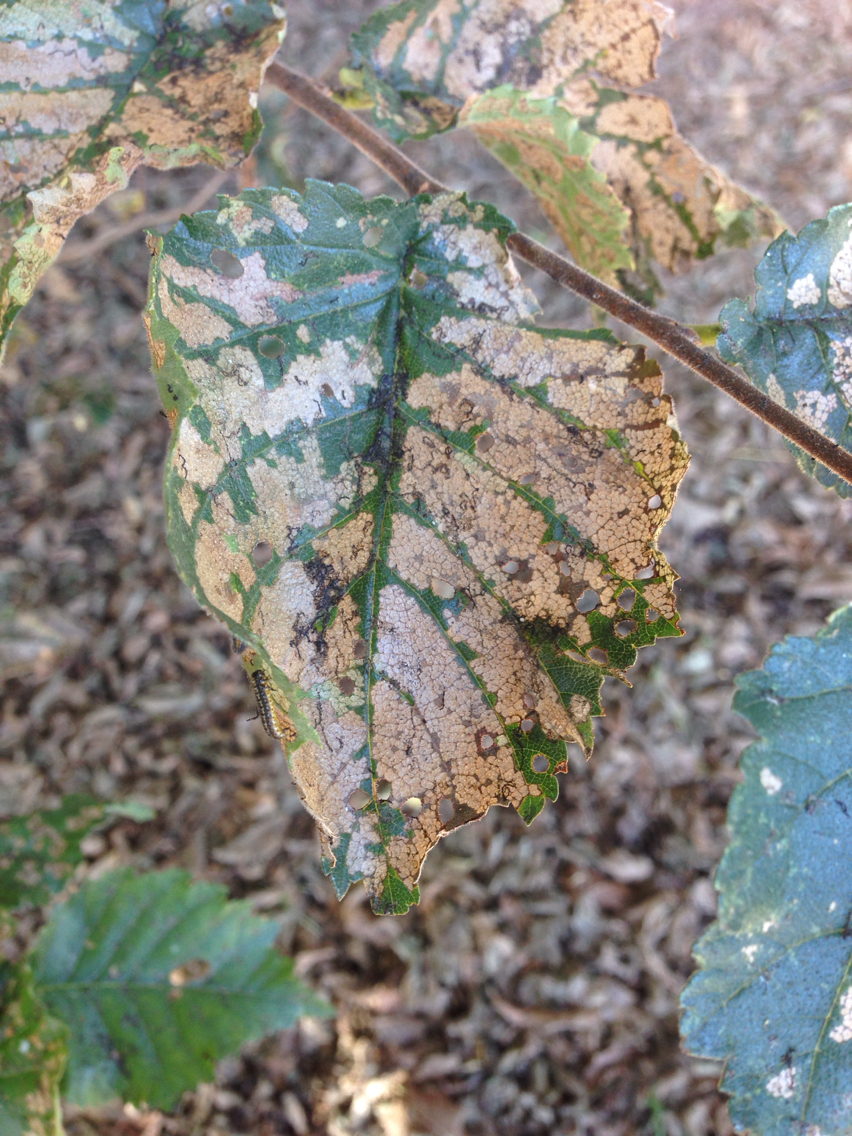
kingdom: Animalia
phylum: Arthropoda
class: Insecta
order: Coleoptera
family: Chrysomelidae
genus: Xanthogaleruca
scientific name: Xanthogaleruca luteola
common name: Elm leaf beetle
